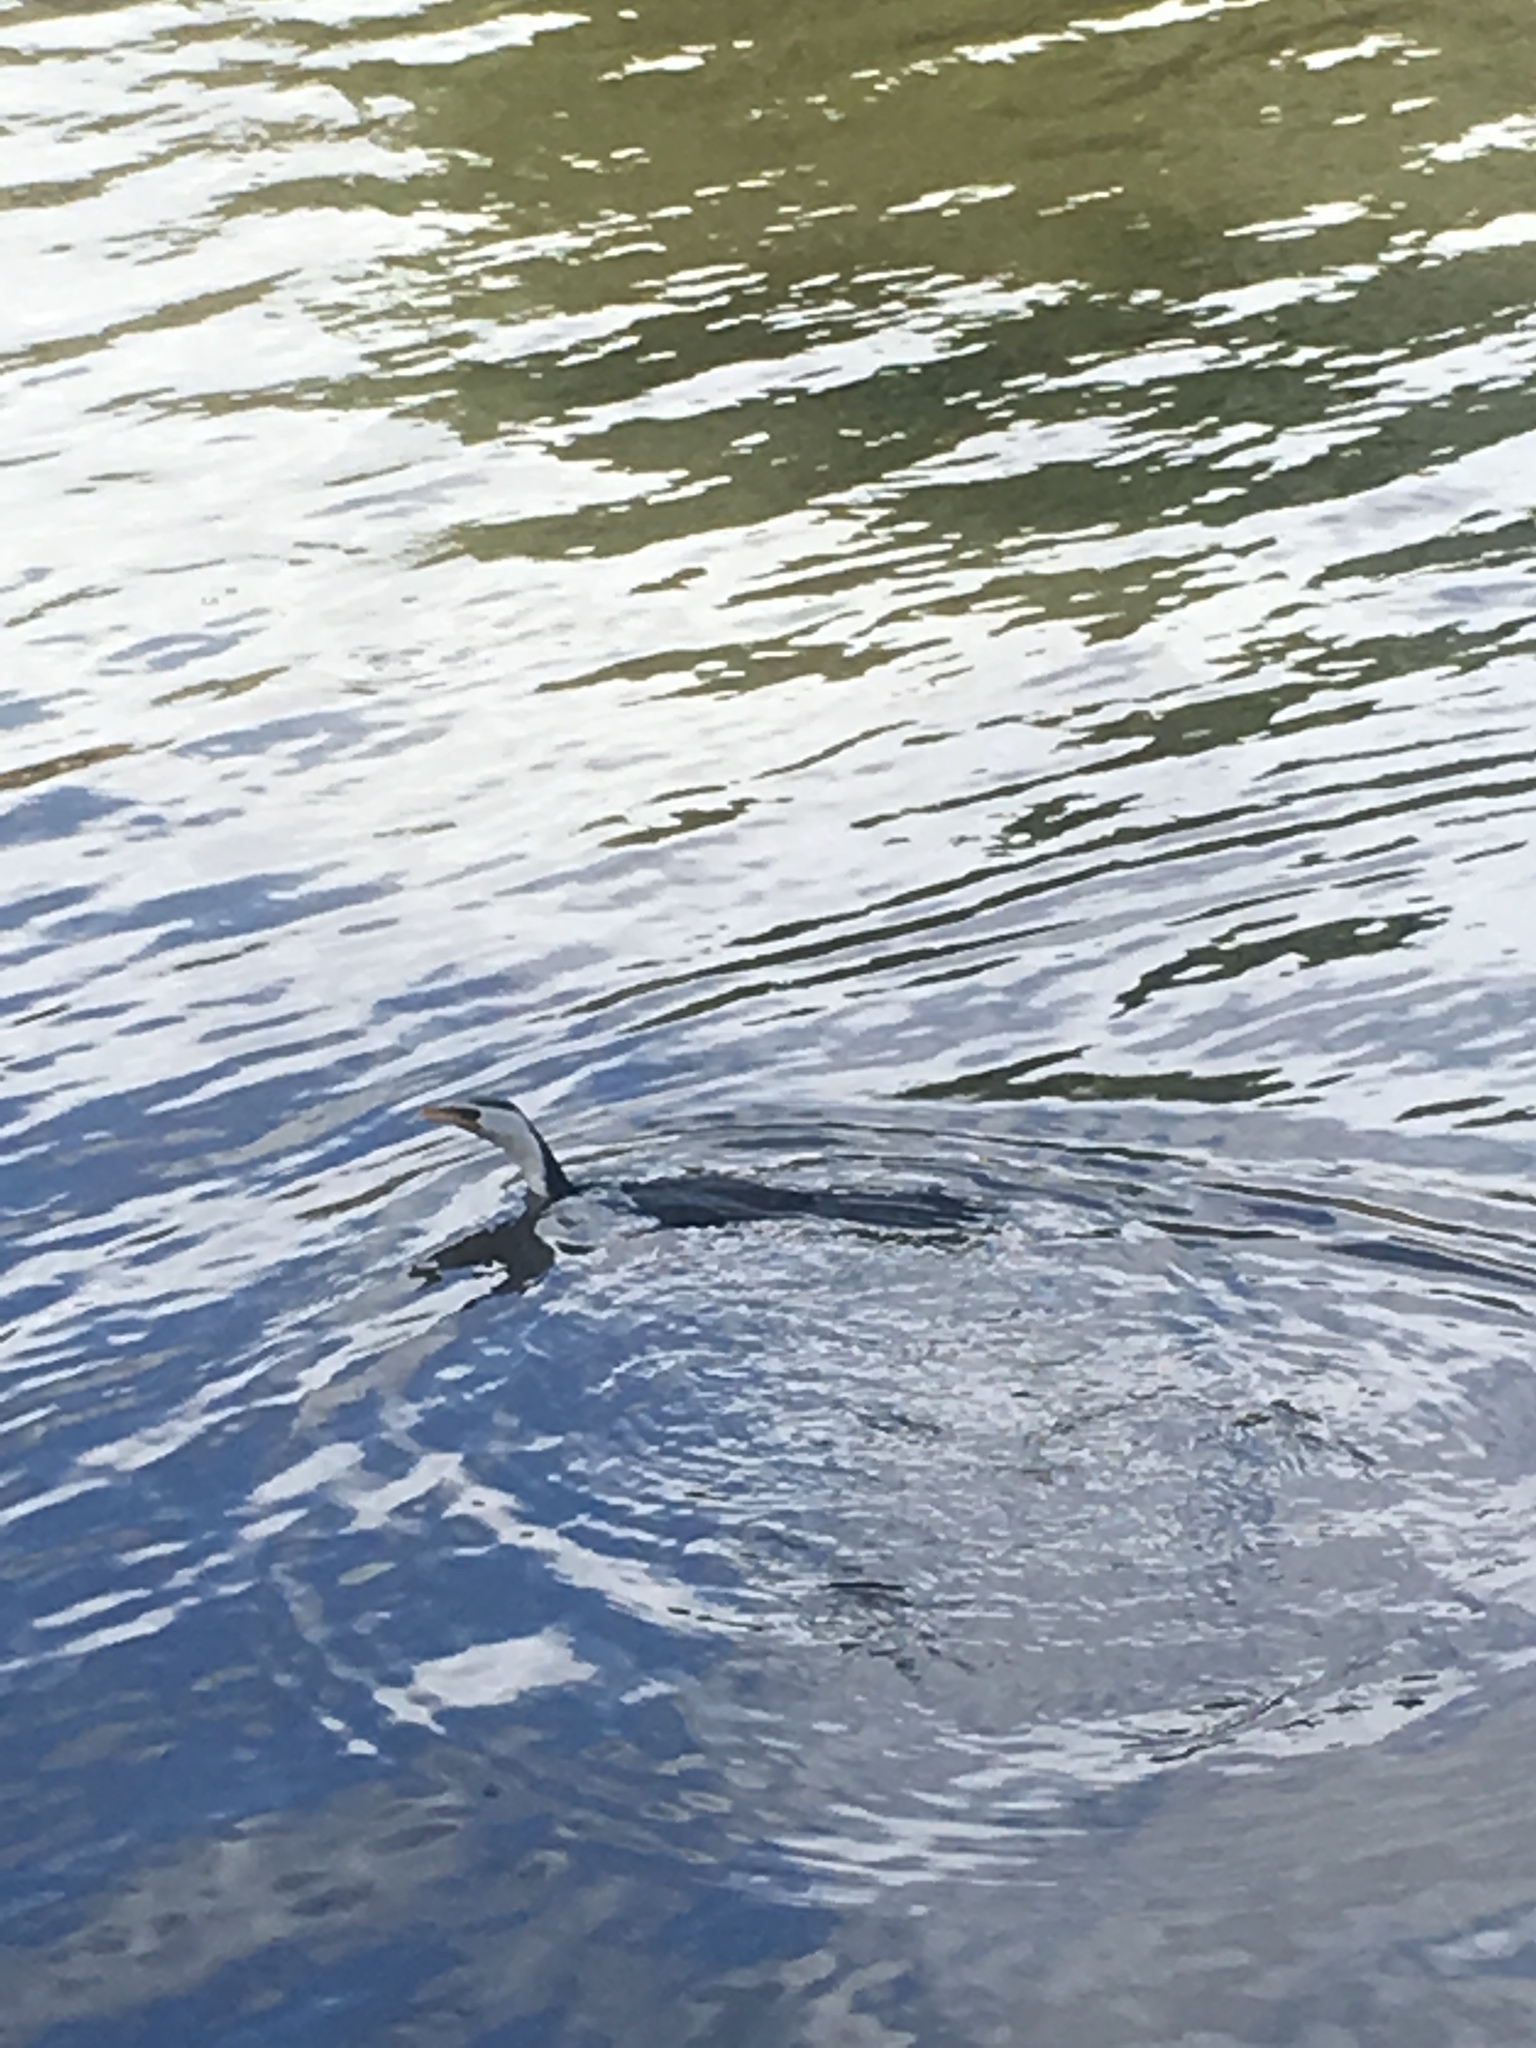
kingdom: Animalia
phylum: Chordata
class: Aves
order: Suliformes
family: Phalacrocoracidae
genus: Microcarbo
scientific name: Microcarbo melanoleucos
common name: Little pied cormorant
